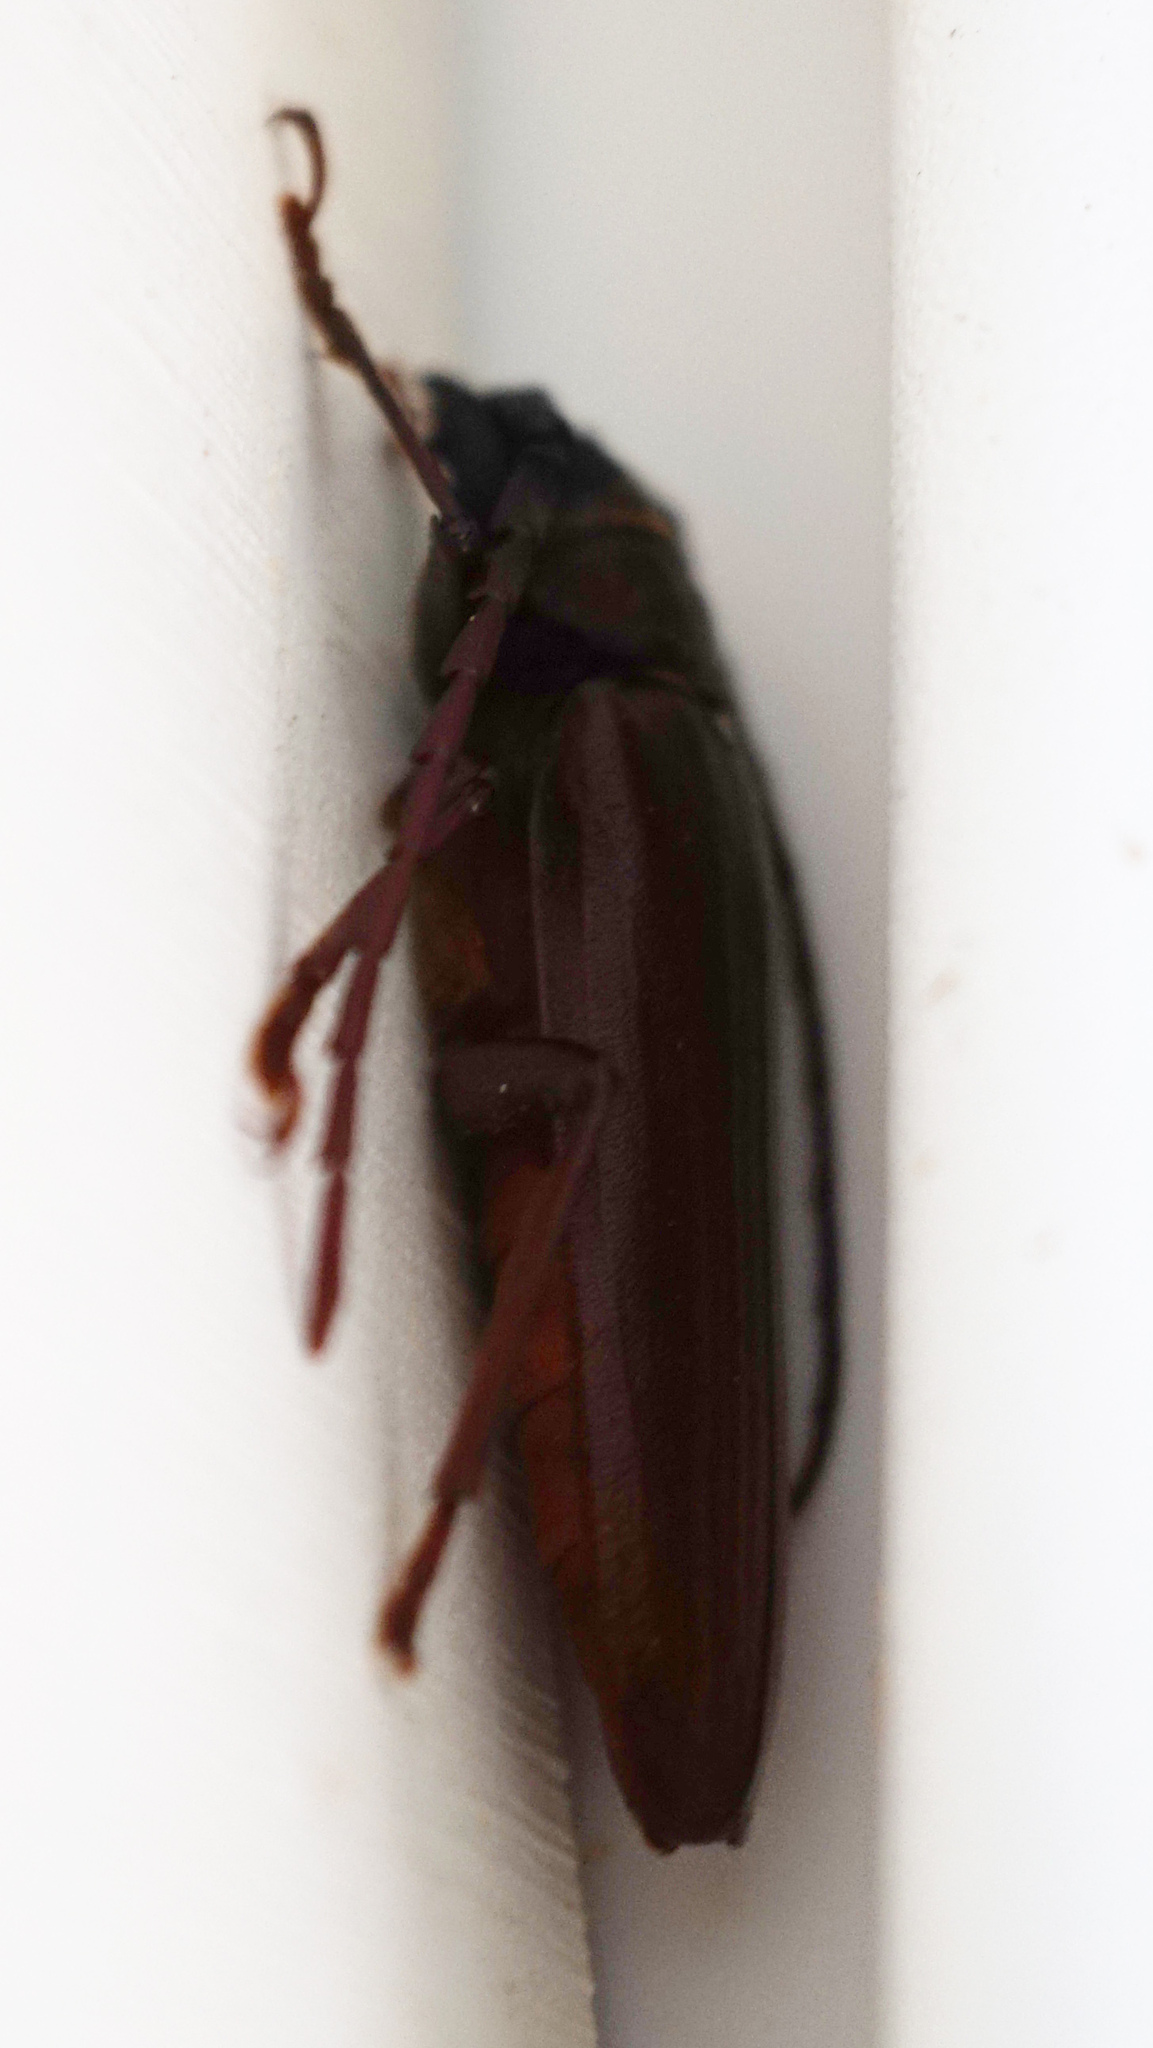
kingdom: Animalia
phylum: Arthropoda
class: Insecta
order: Coleoptera
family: Cerambycidae
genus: Orthosoma
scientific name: Orthosoma brunneum
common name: Brown prionid beetle
